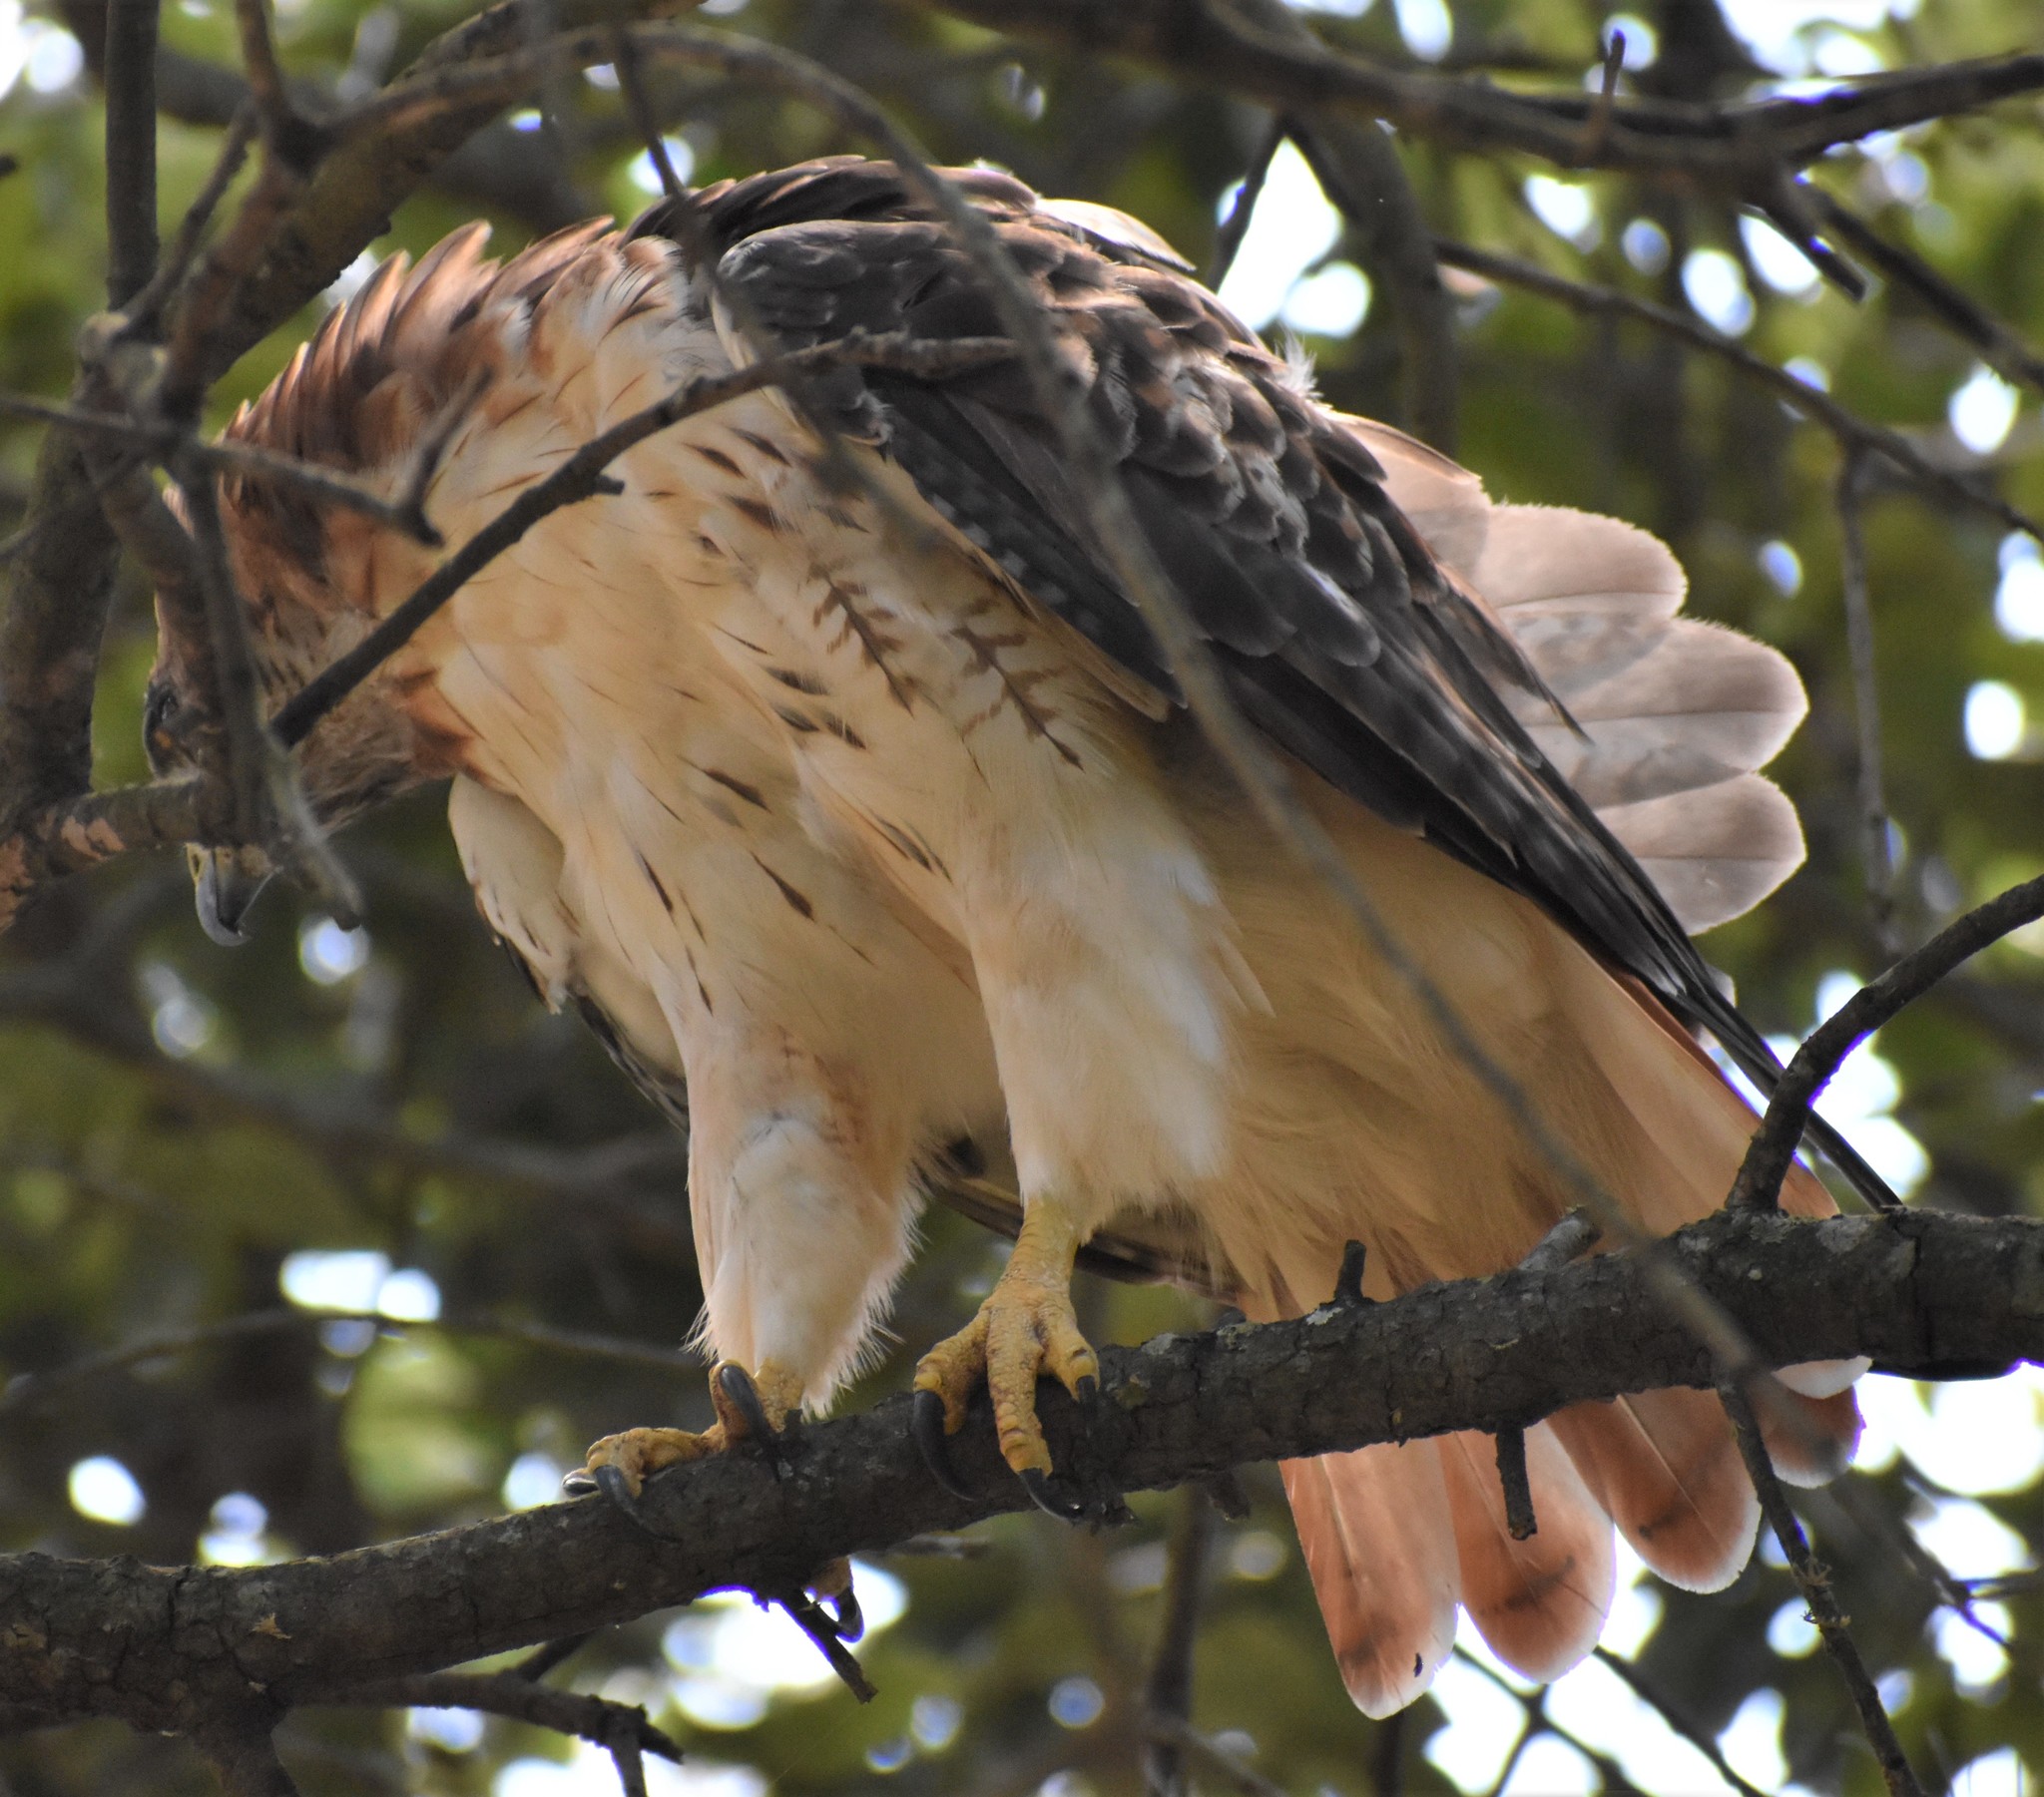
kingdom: Animalia
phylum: Chordata
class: Aves
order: Accipitriformes
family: Accipitridae
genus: Buteo
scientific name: Buteo jamaicensis
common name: Red-tailed hawk
